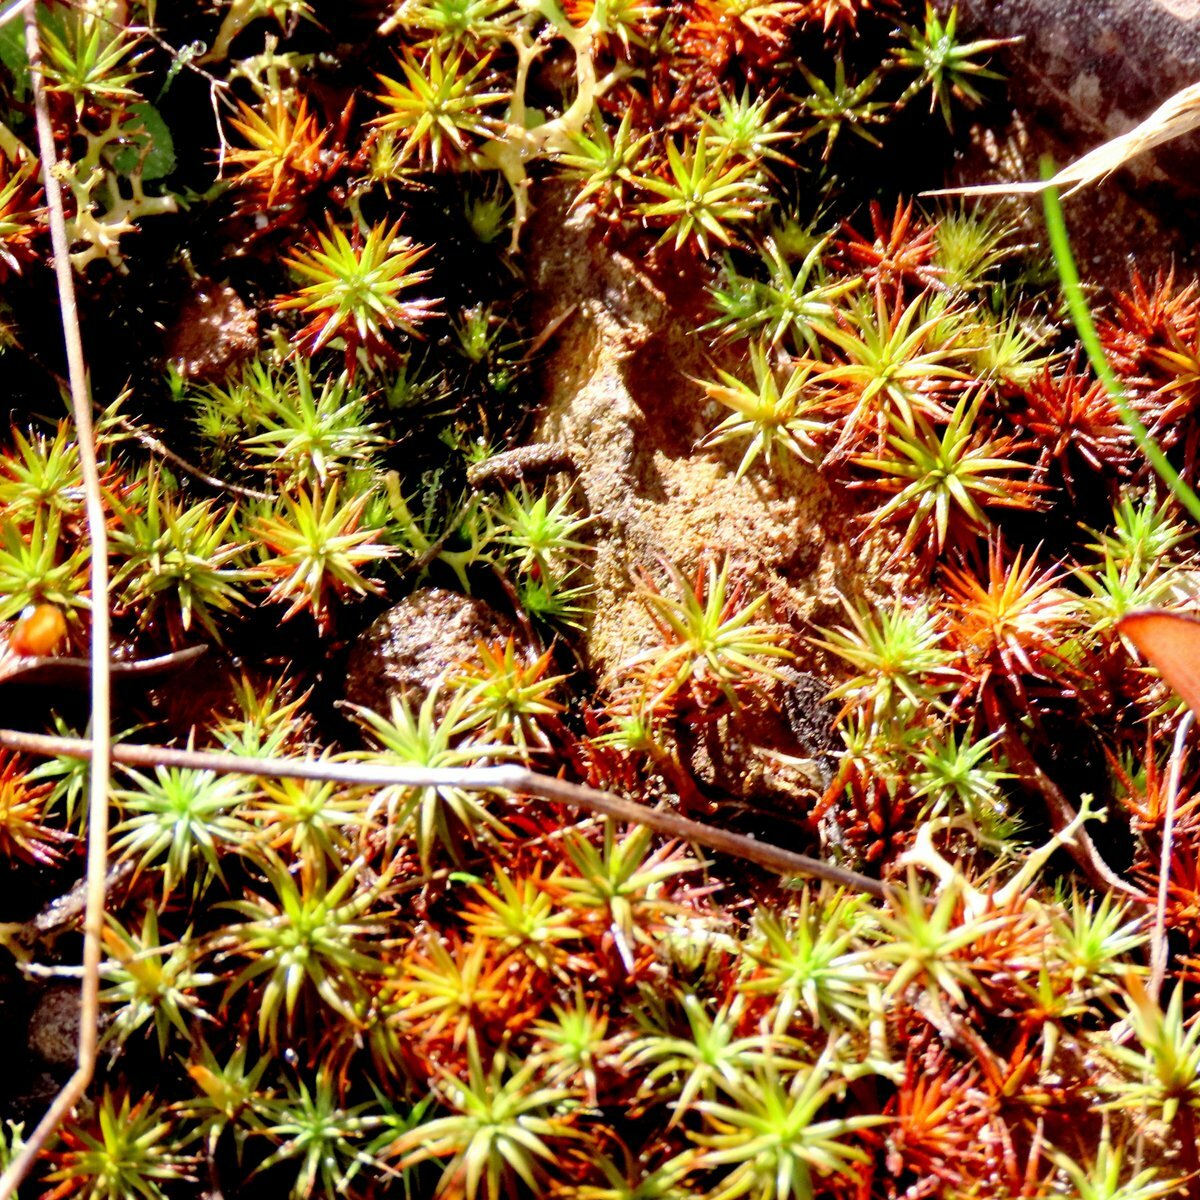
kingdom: Plantae
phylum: Bryophyta
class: Polytrichopsida
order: Polytrichales
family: Polytrichaceae
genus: Polytrichum
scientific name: Polytrichum juniperinum
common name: Juniper haircap moss
